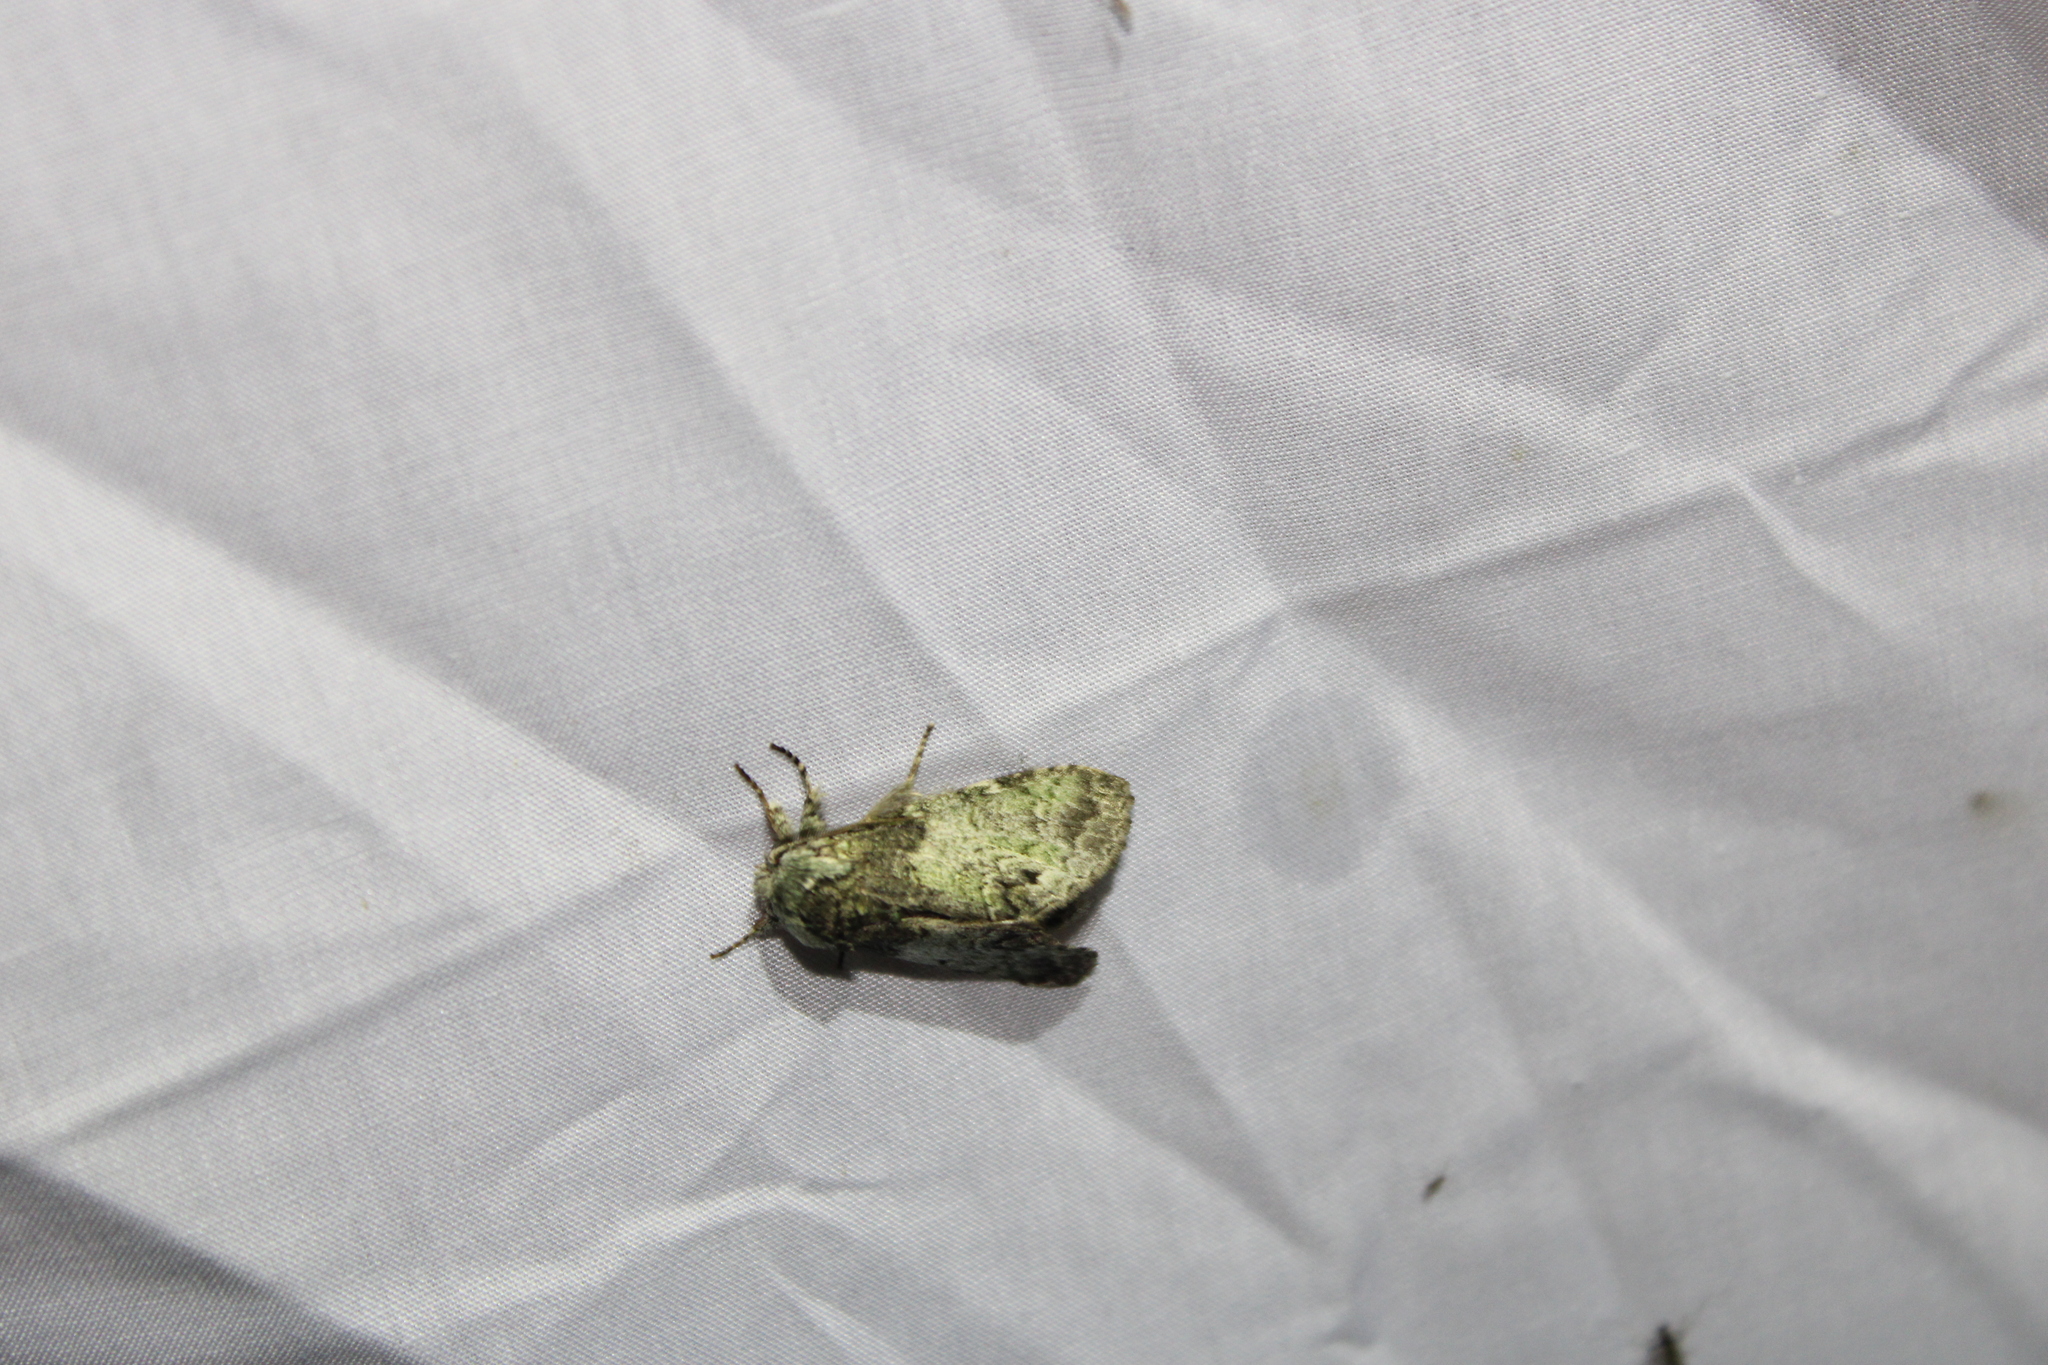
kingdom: Animalia
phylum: Arthropoda
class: Insecta
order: Lepidoptera
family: Notodontidae
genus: Macrurocampa
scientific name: Macrurocampa marthesia
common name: Mottled prominent
